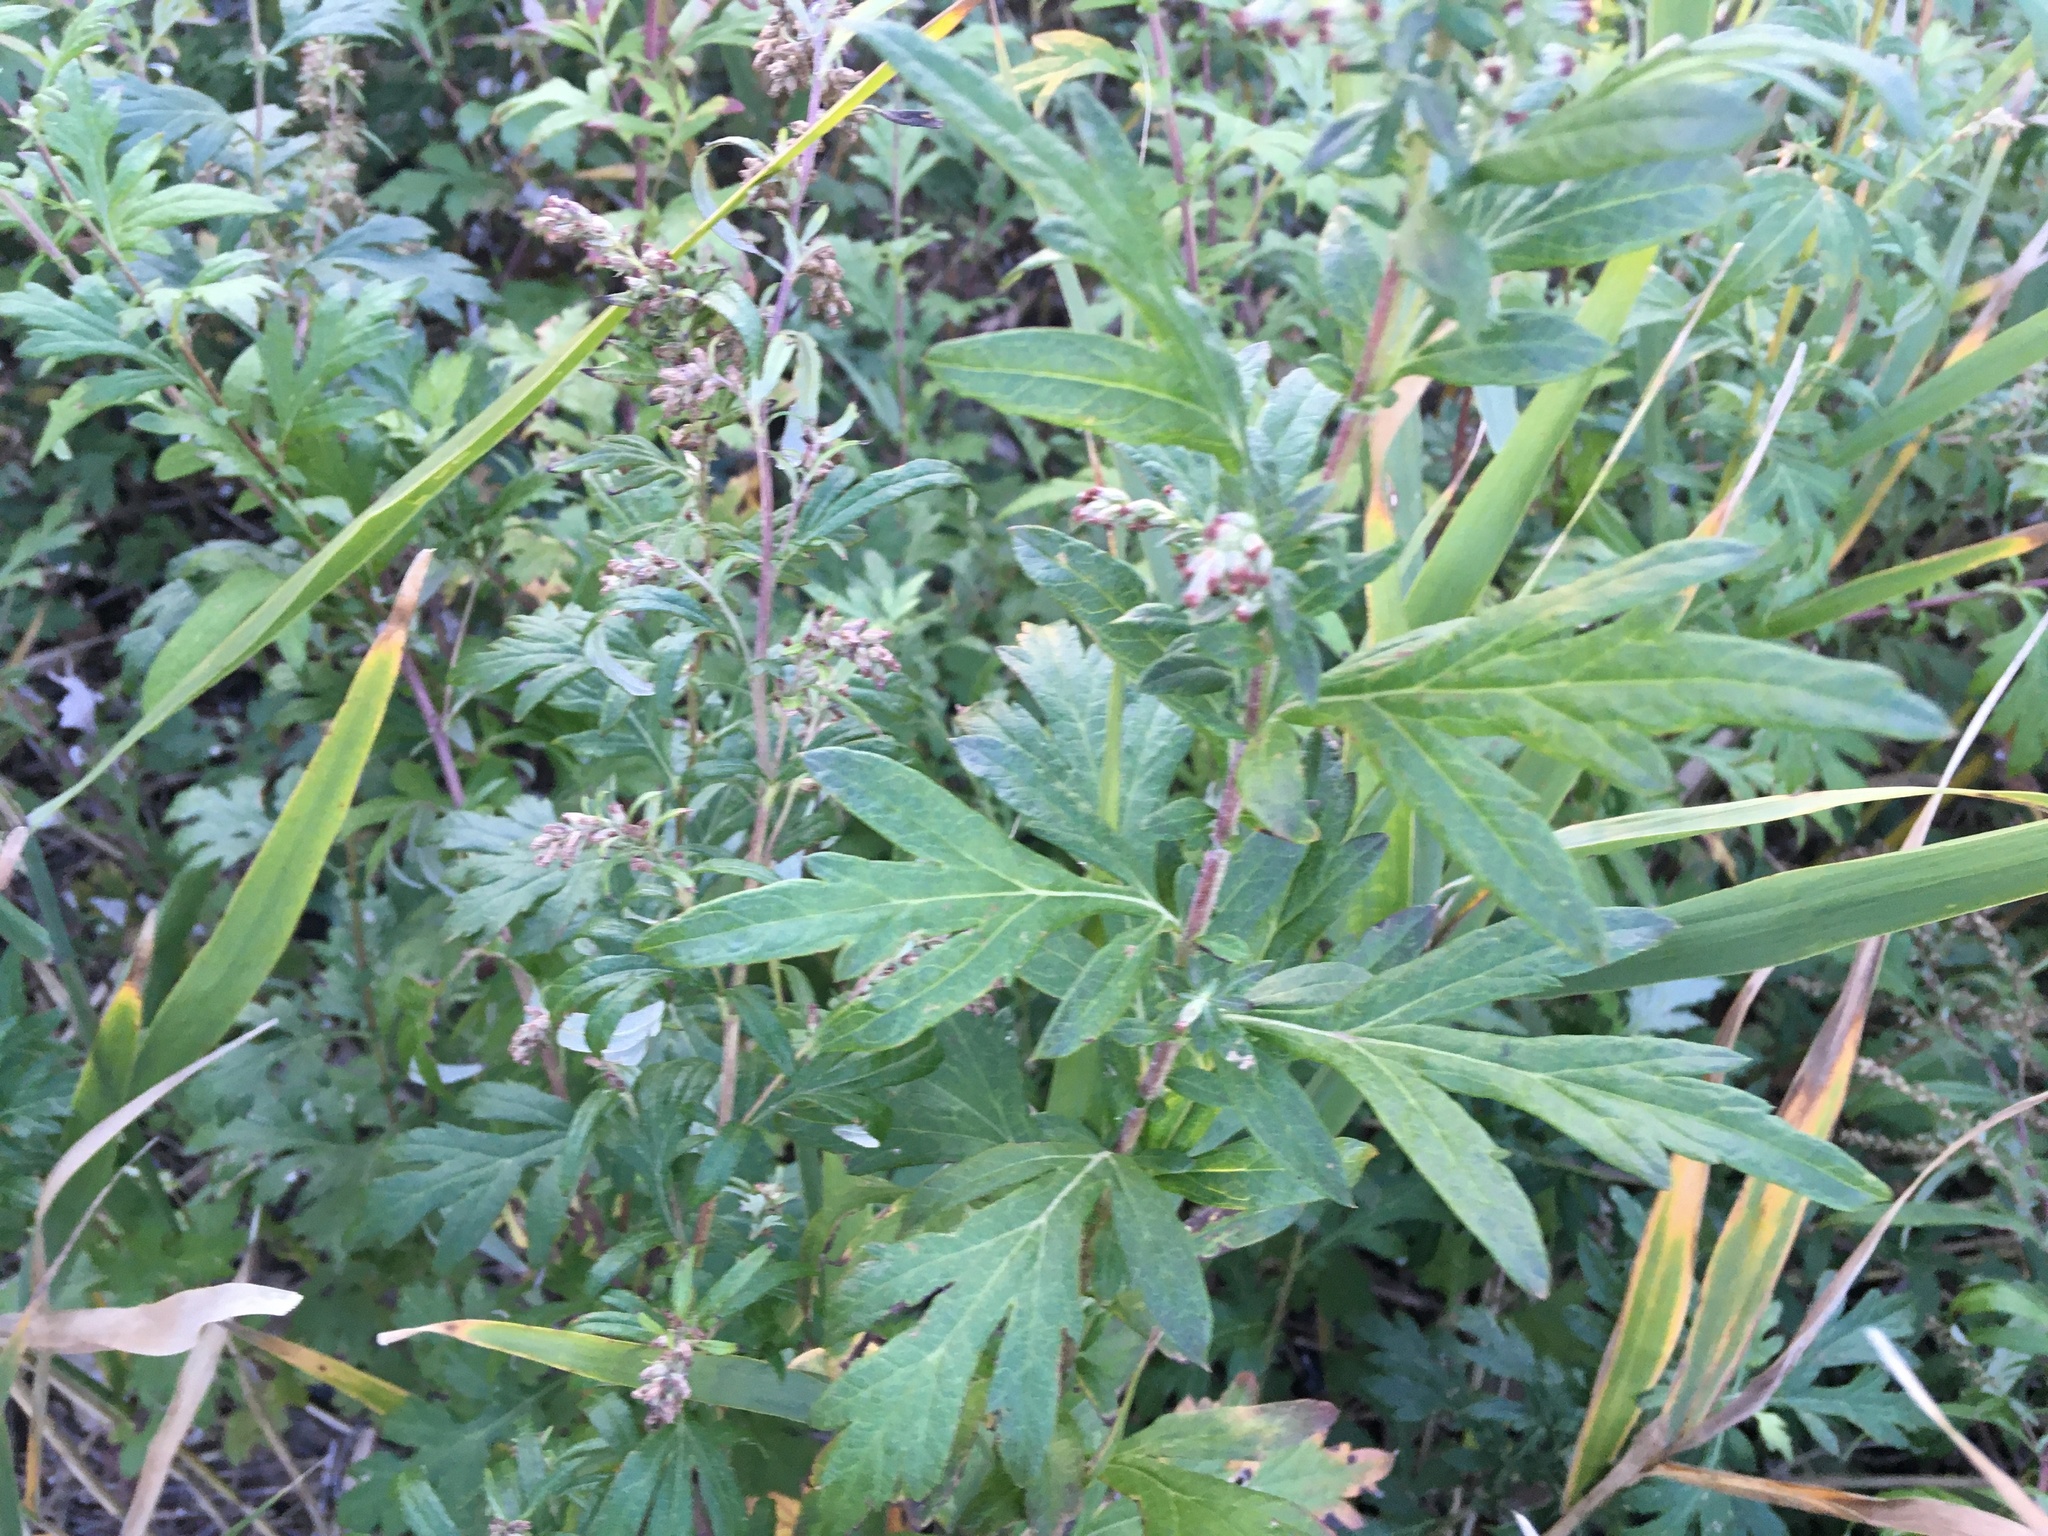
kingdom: Plantae
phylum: Tracheophyta
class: Magnoliopsida
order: Asterales
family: Asteraceae
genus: Artemisia
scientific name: Artemisia vulgaris
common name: Mugwort
